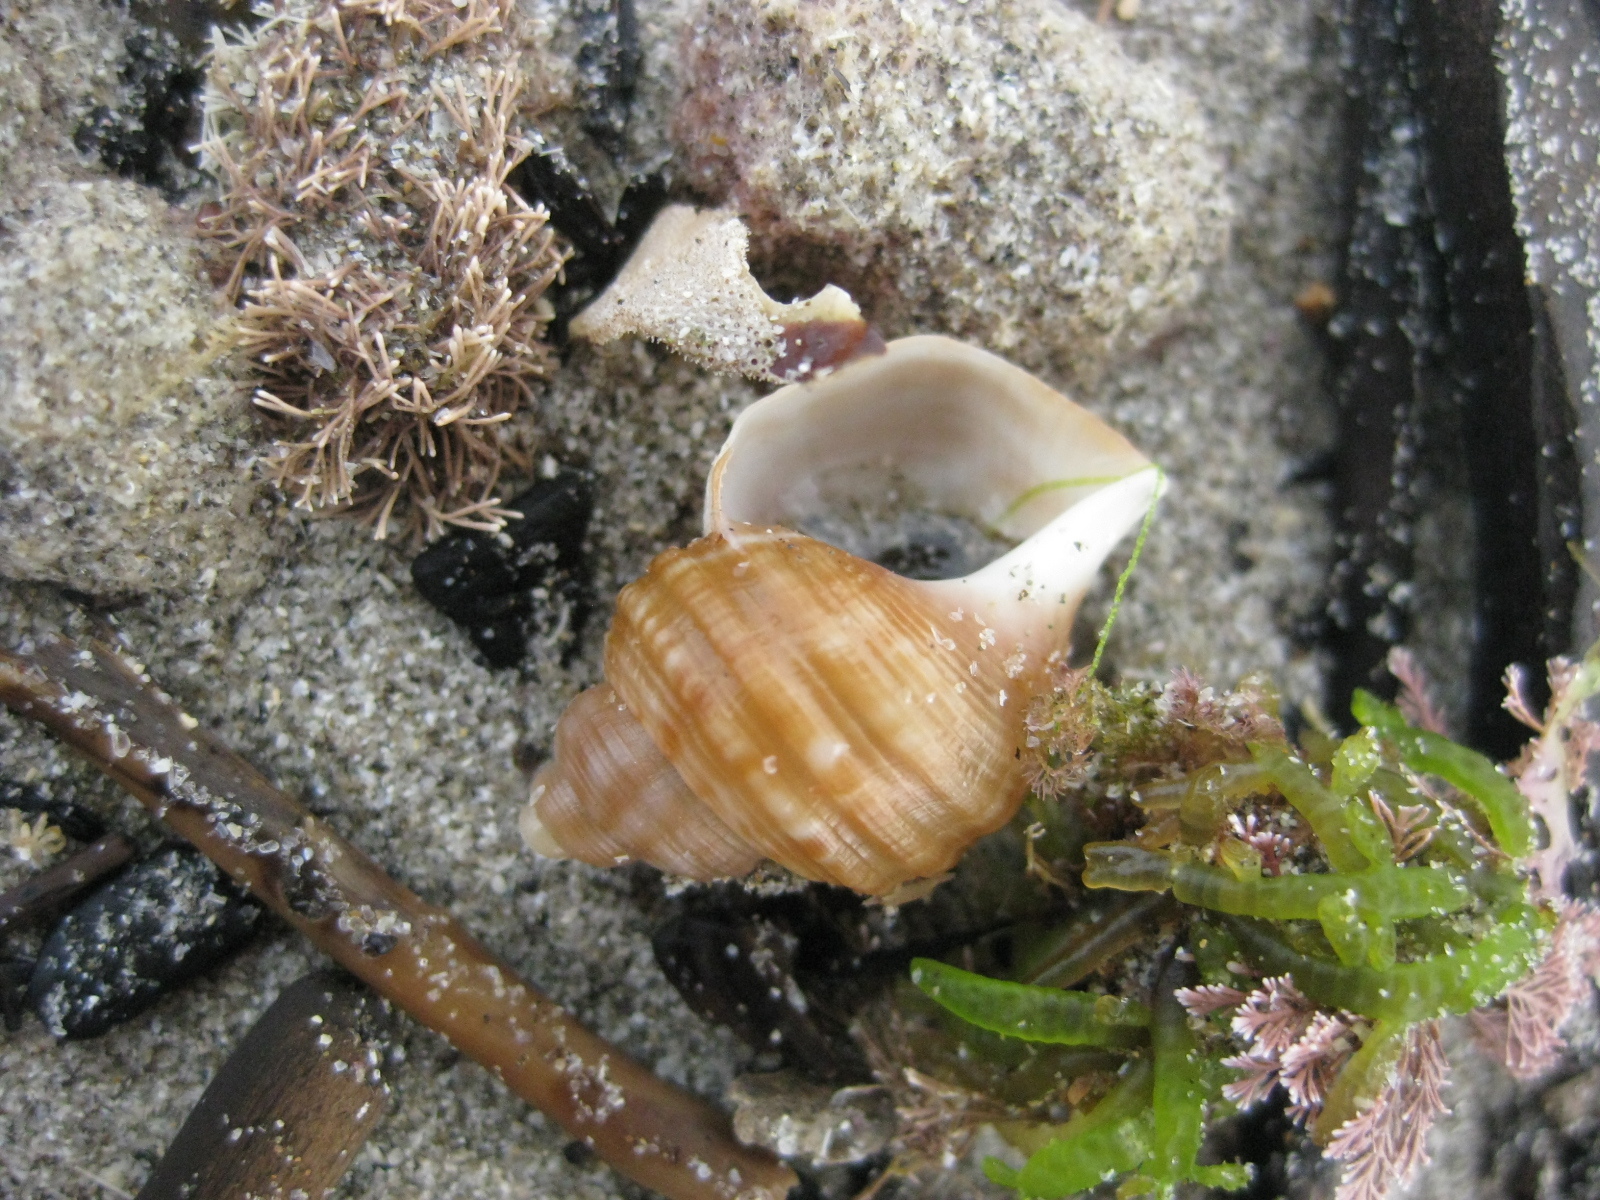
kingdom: Animalia
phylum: Mollusca
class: Gastropoda
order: Littorinimorpha
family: Struthiolariidae
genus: Pelicaria
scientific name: Pelicaria vermis
